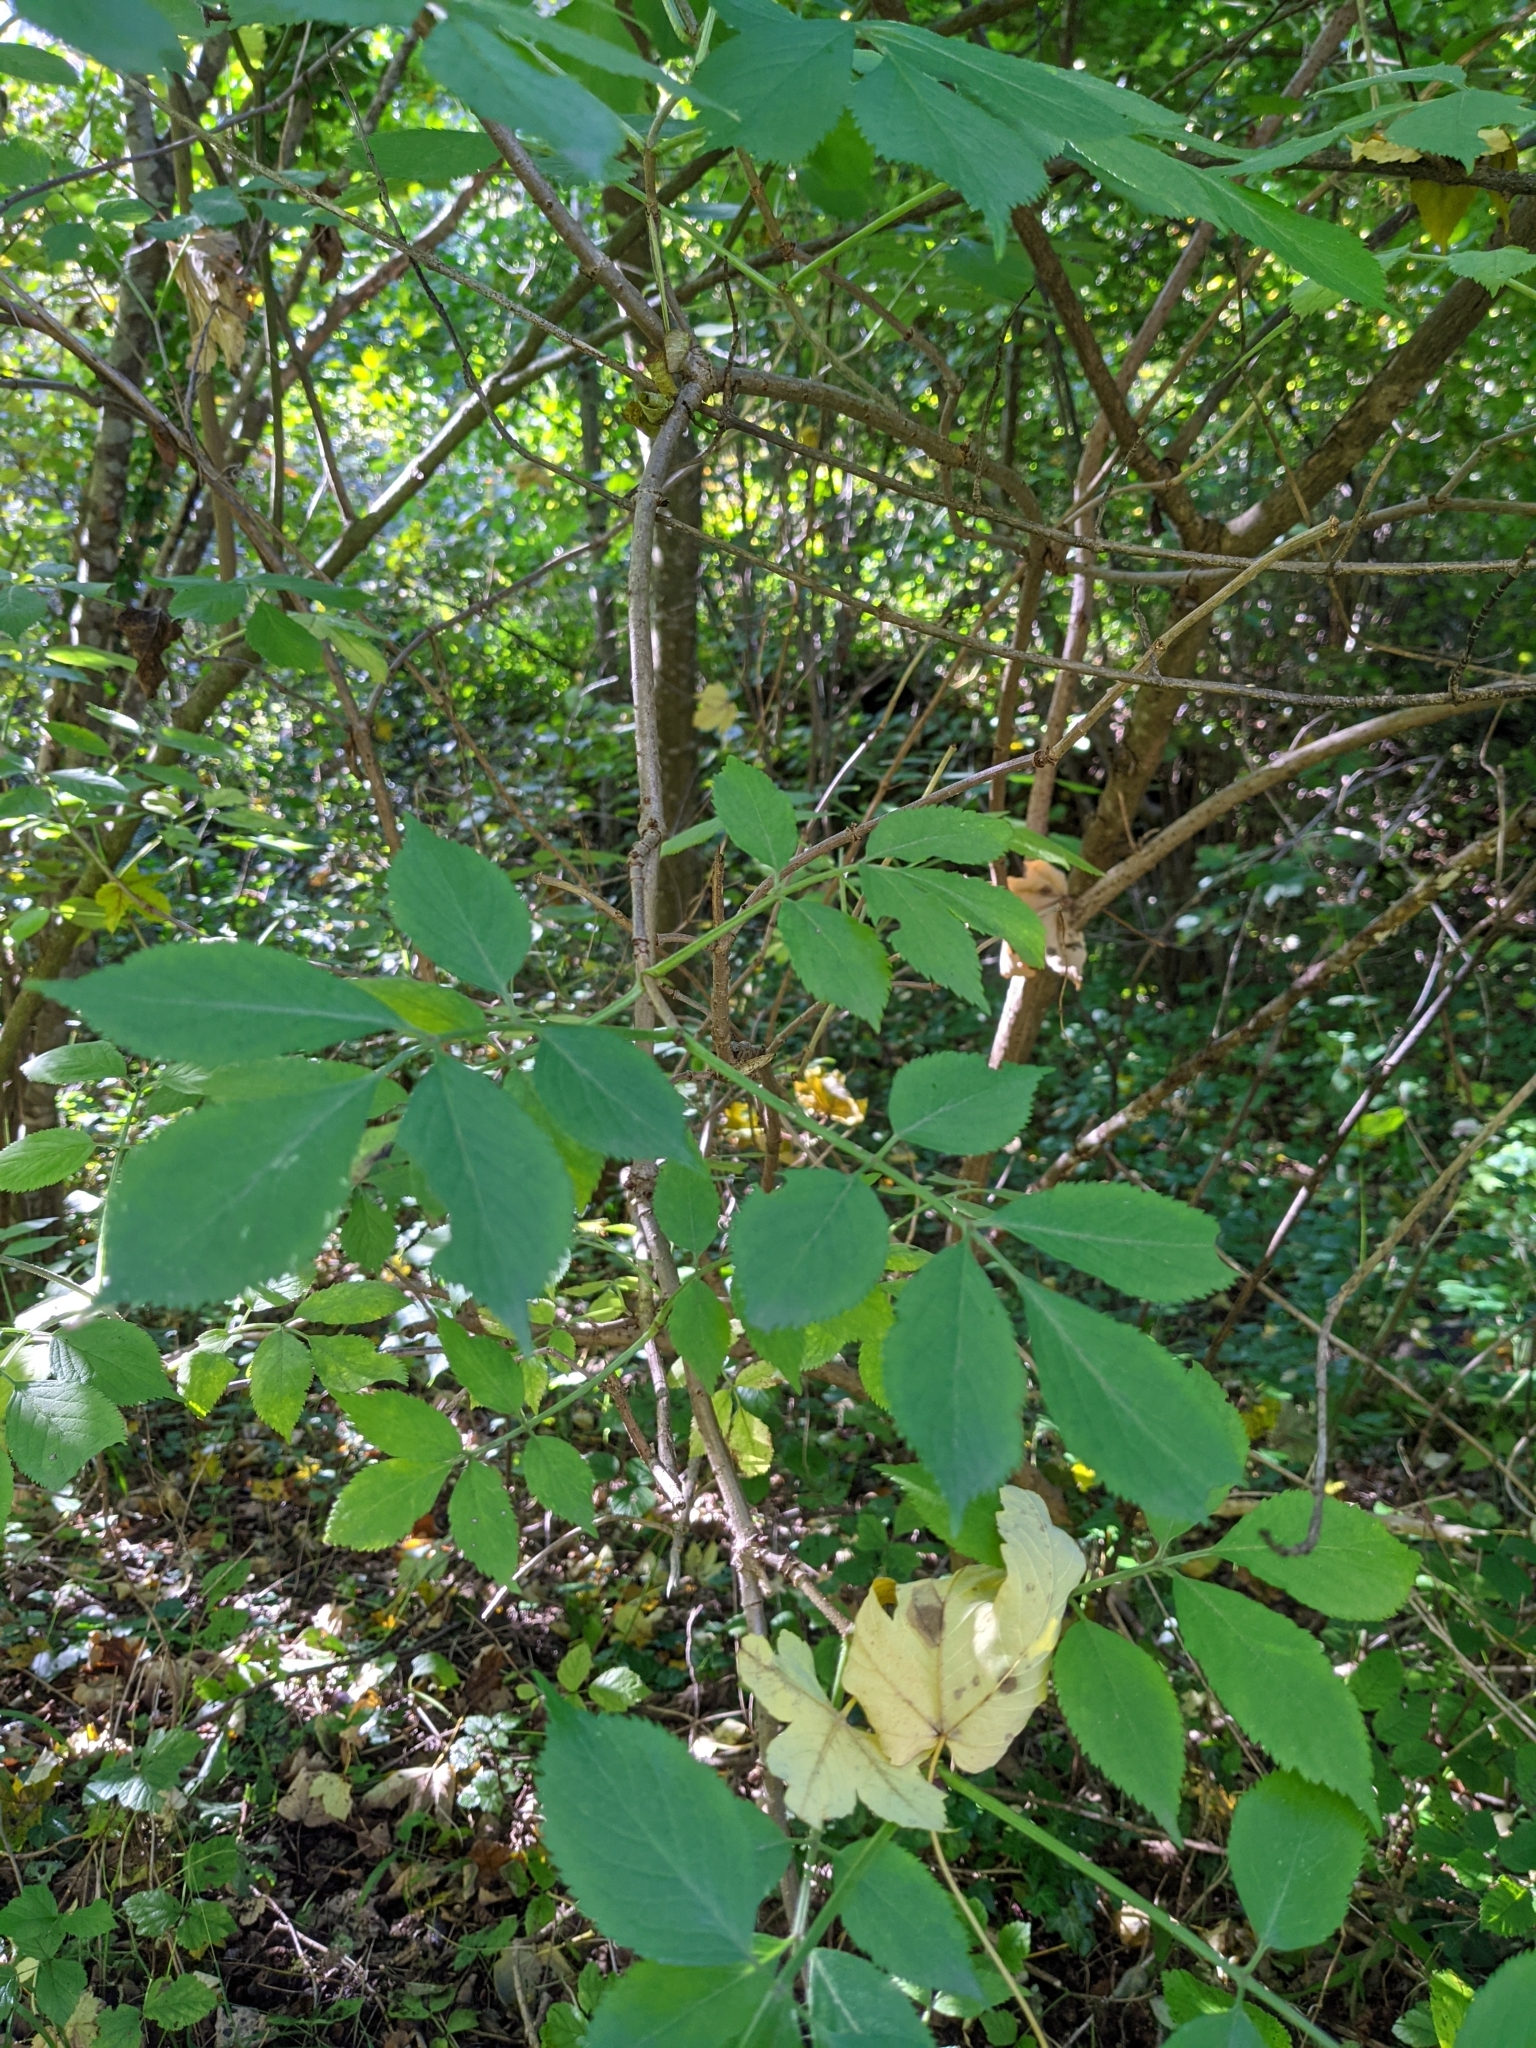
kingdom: Plantae
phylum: Tracheophyta
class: Magnoliopsida
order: Dipsacales
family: Viburnaceae
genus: Sambucus
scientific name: Sambucus nigra
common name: Elder
